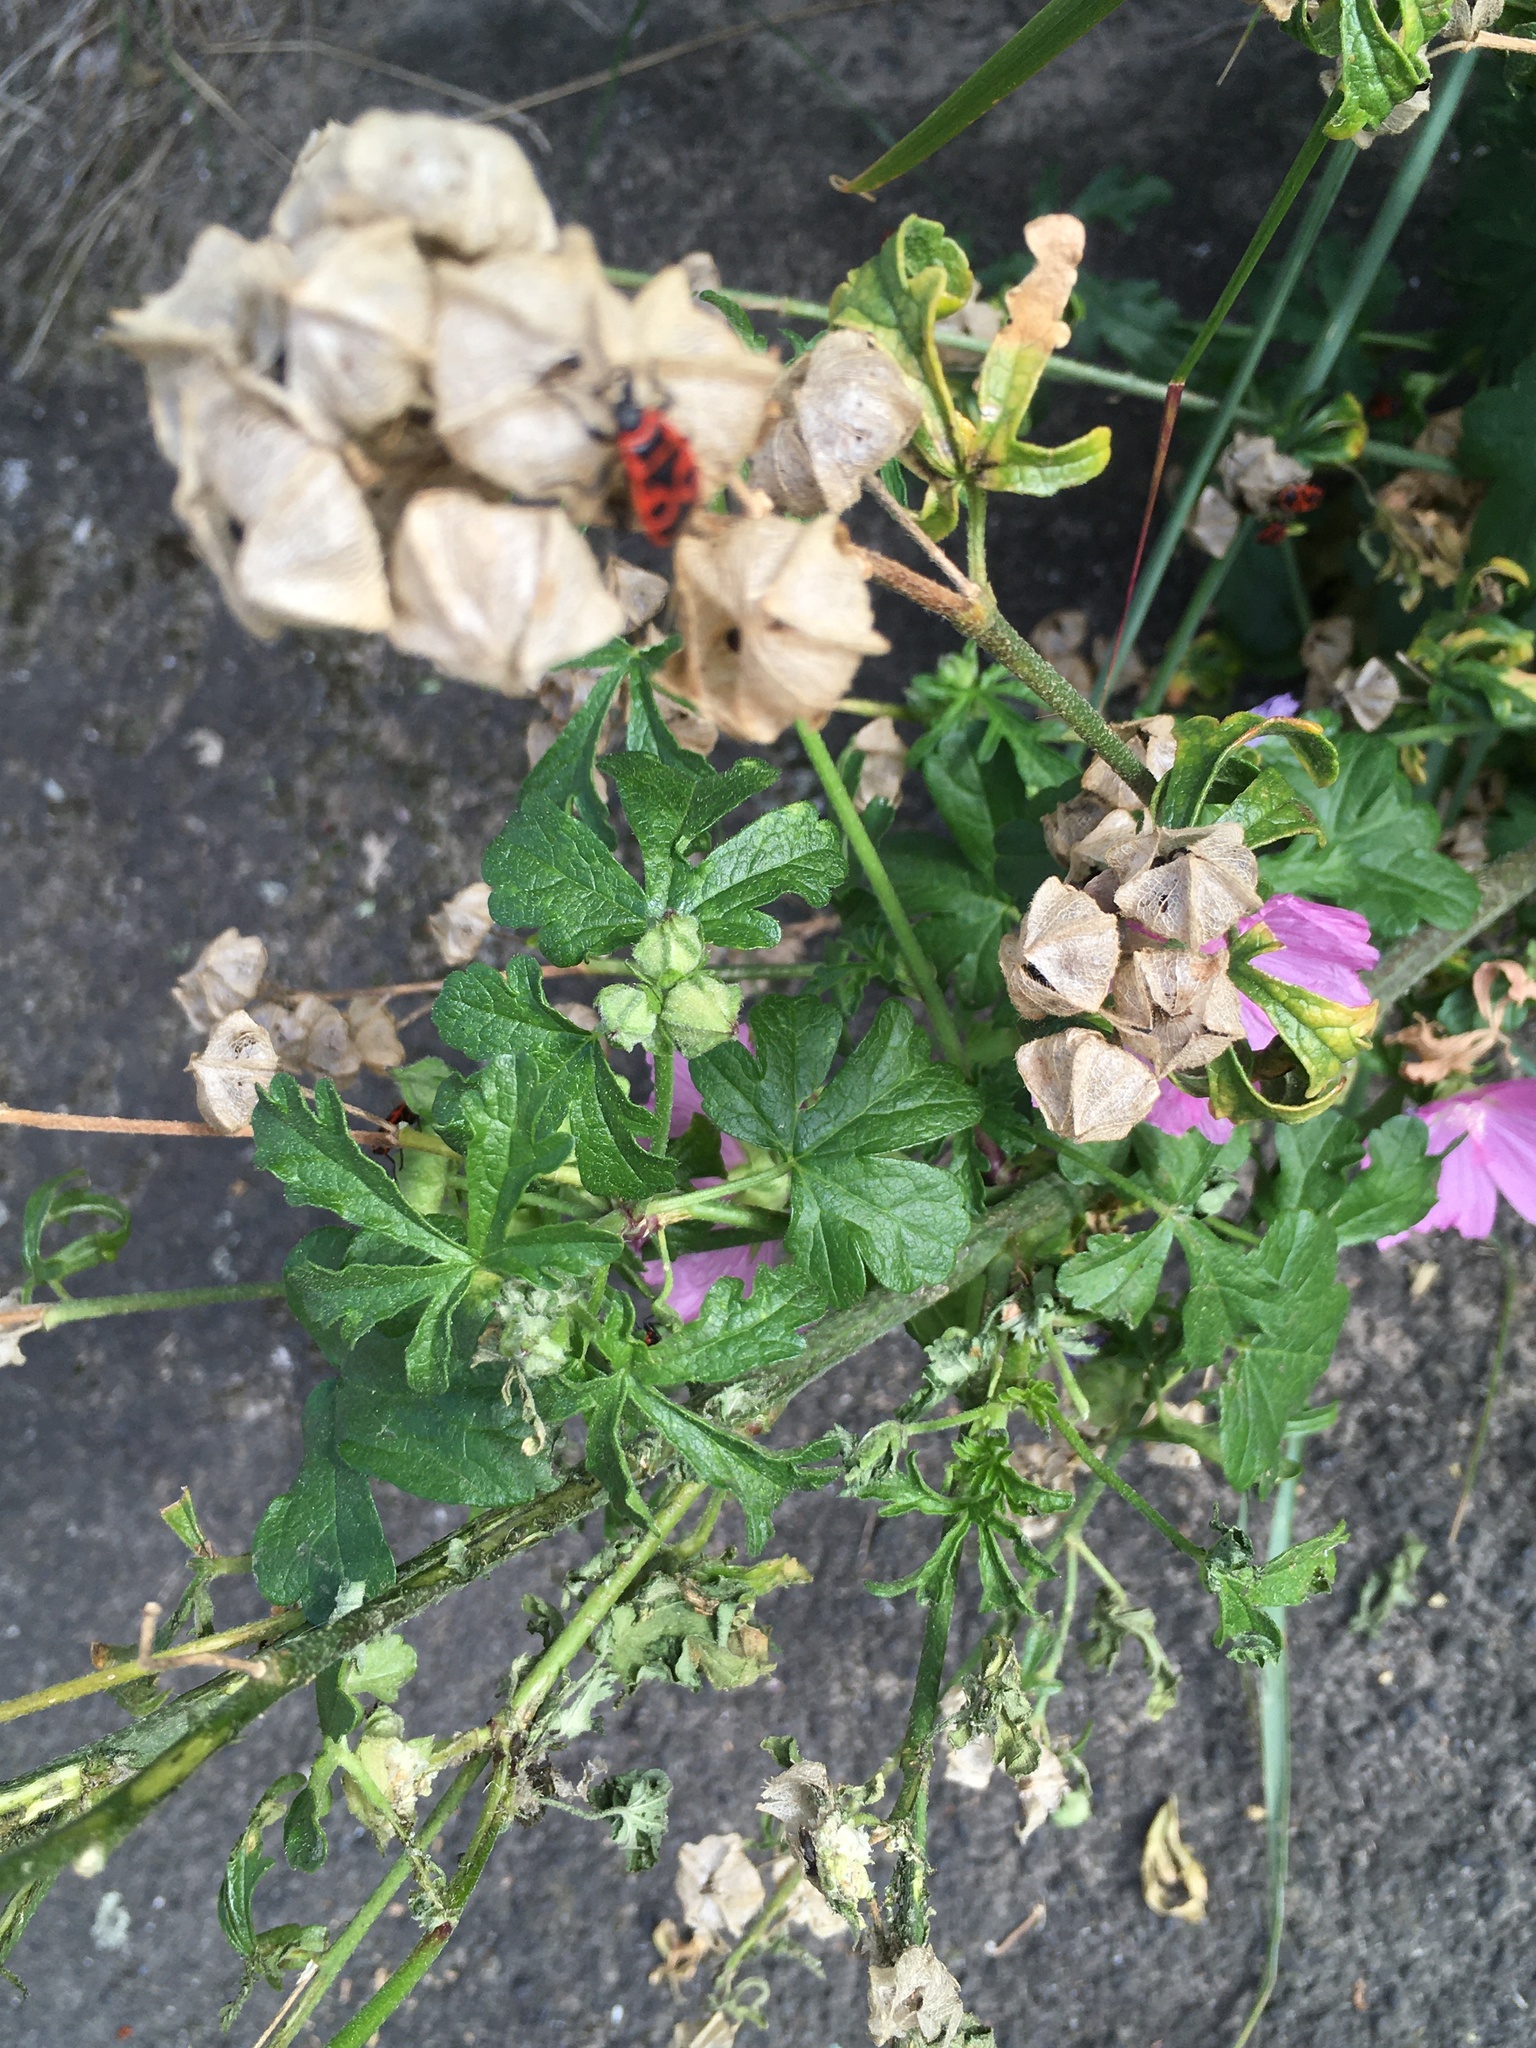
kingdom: Plantae
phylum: Tracheophyta
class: Magnoliopsida
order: Malvales
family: Malvaceae
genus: Malva
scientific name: Malva alcea
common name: Greater musk-mallow
